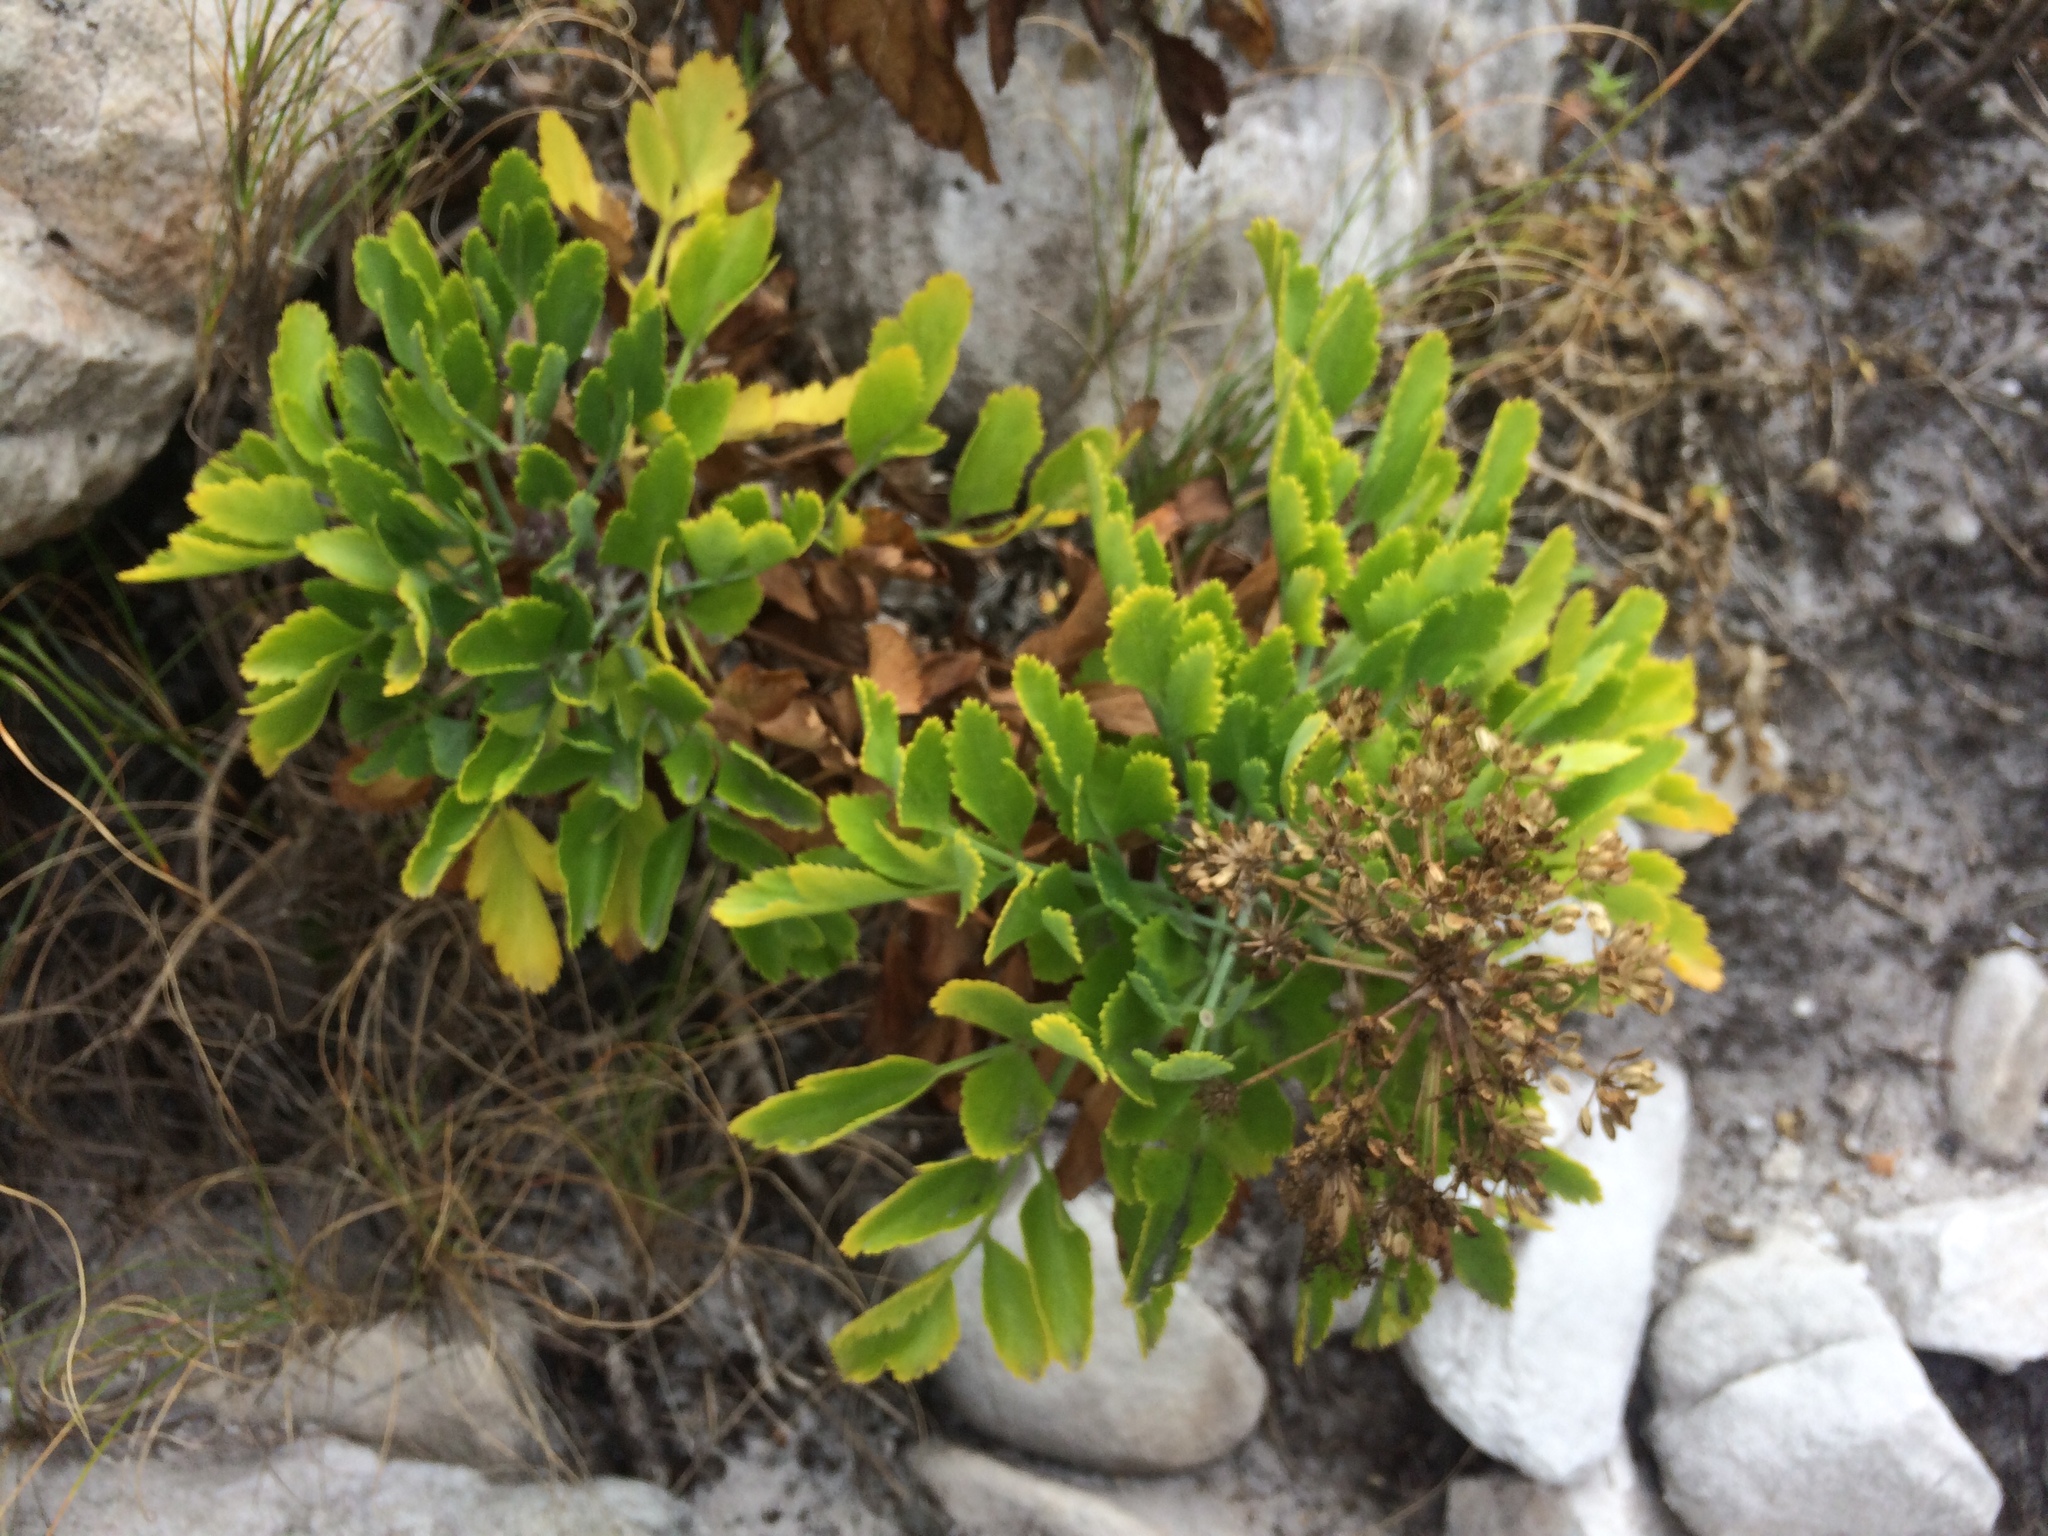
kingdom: Plantae
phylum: Tracheophyta
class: Magnoliopsida
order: Apiales
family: Apiaceae
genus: Notobubon
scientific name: Notobubon galbanum
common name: Blisterbush
